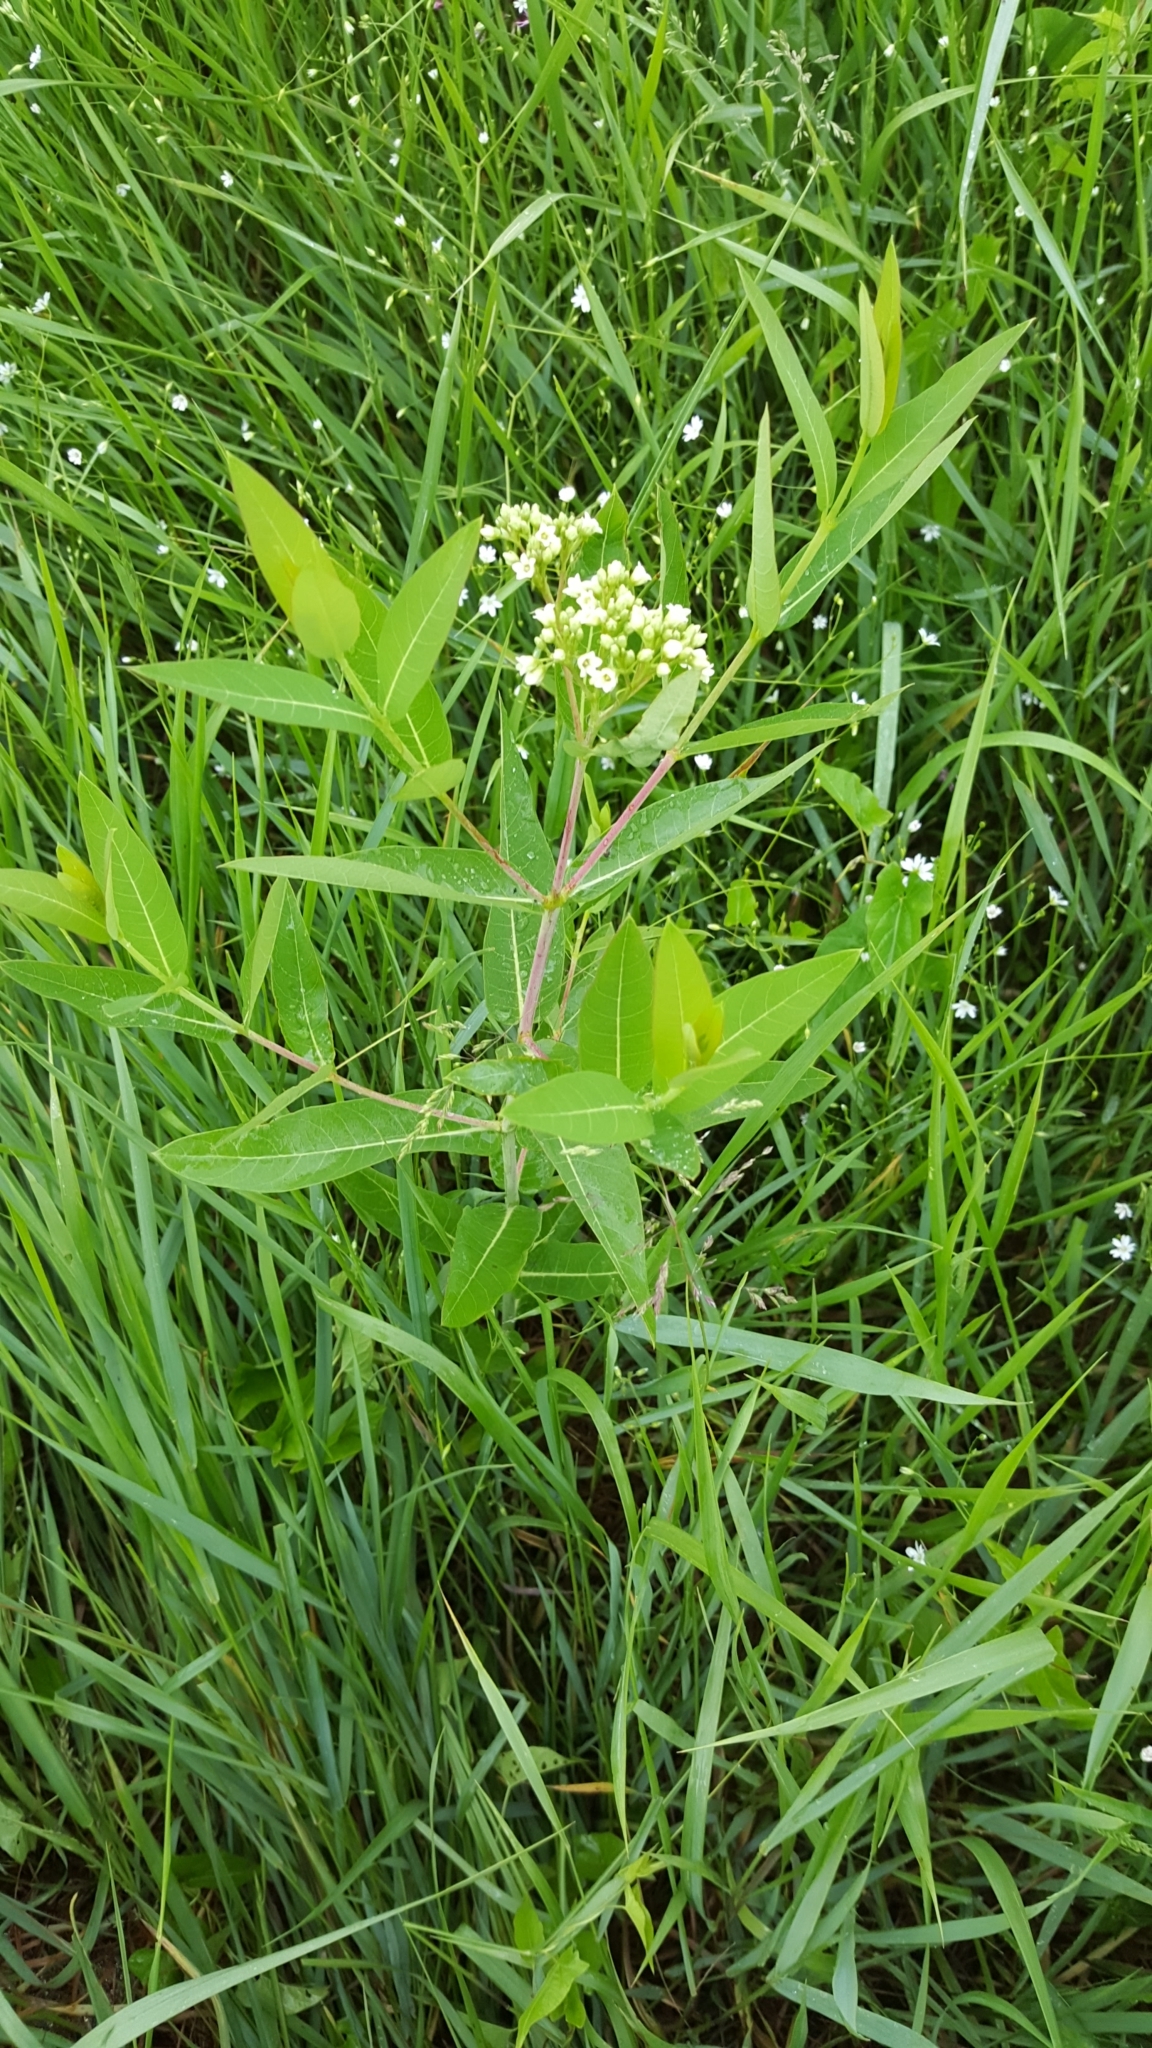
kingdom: Plantae
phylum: Tracheophyta
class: Magnoliopsida
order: Gentianales
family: Apocynaceae
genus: Apocynum
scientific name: Apocynum cannabinum
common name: Hemp dogbane
